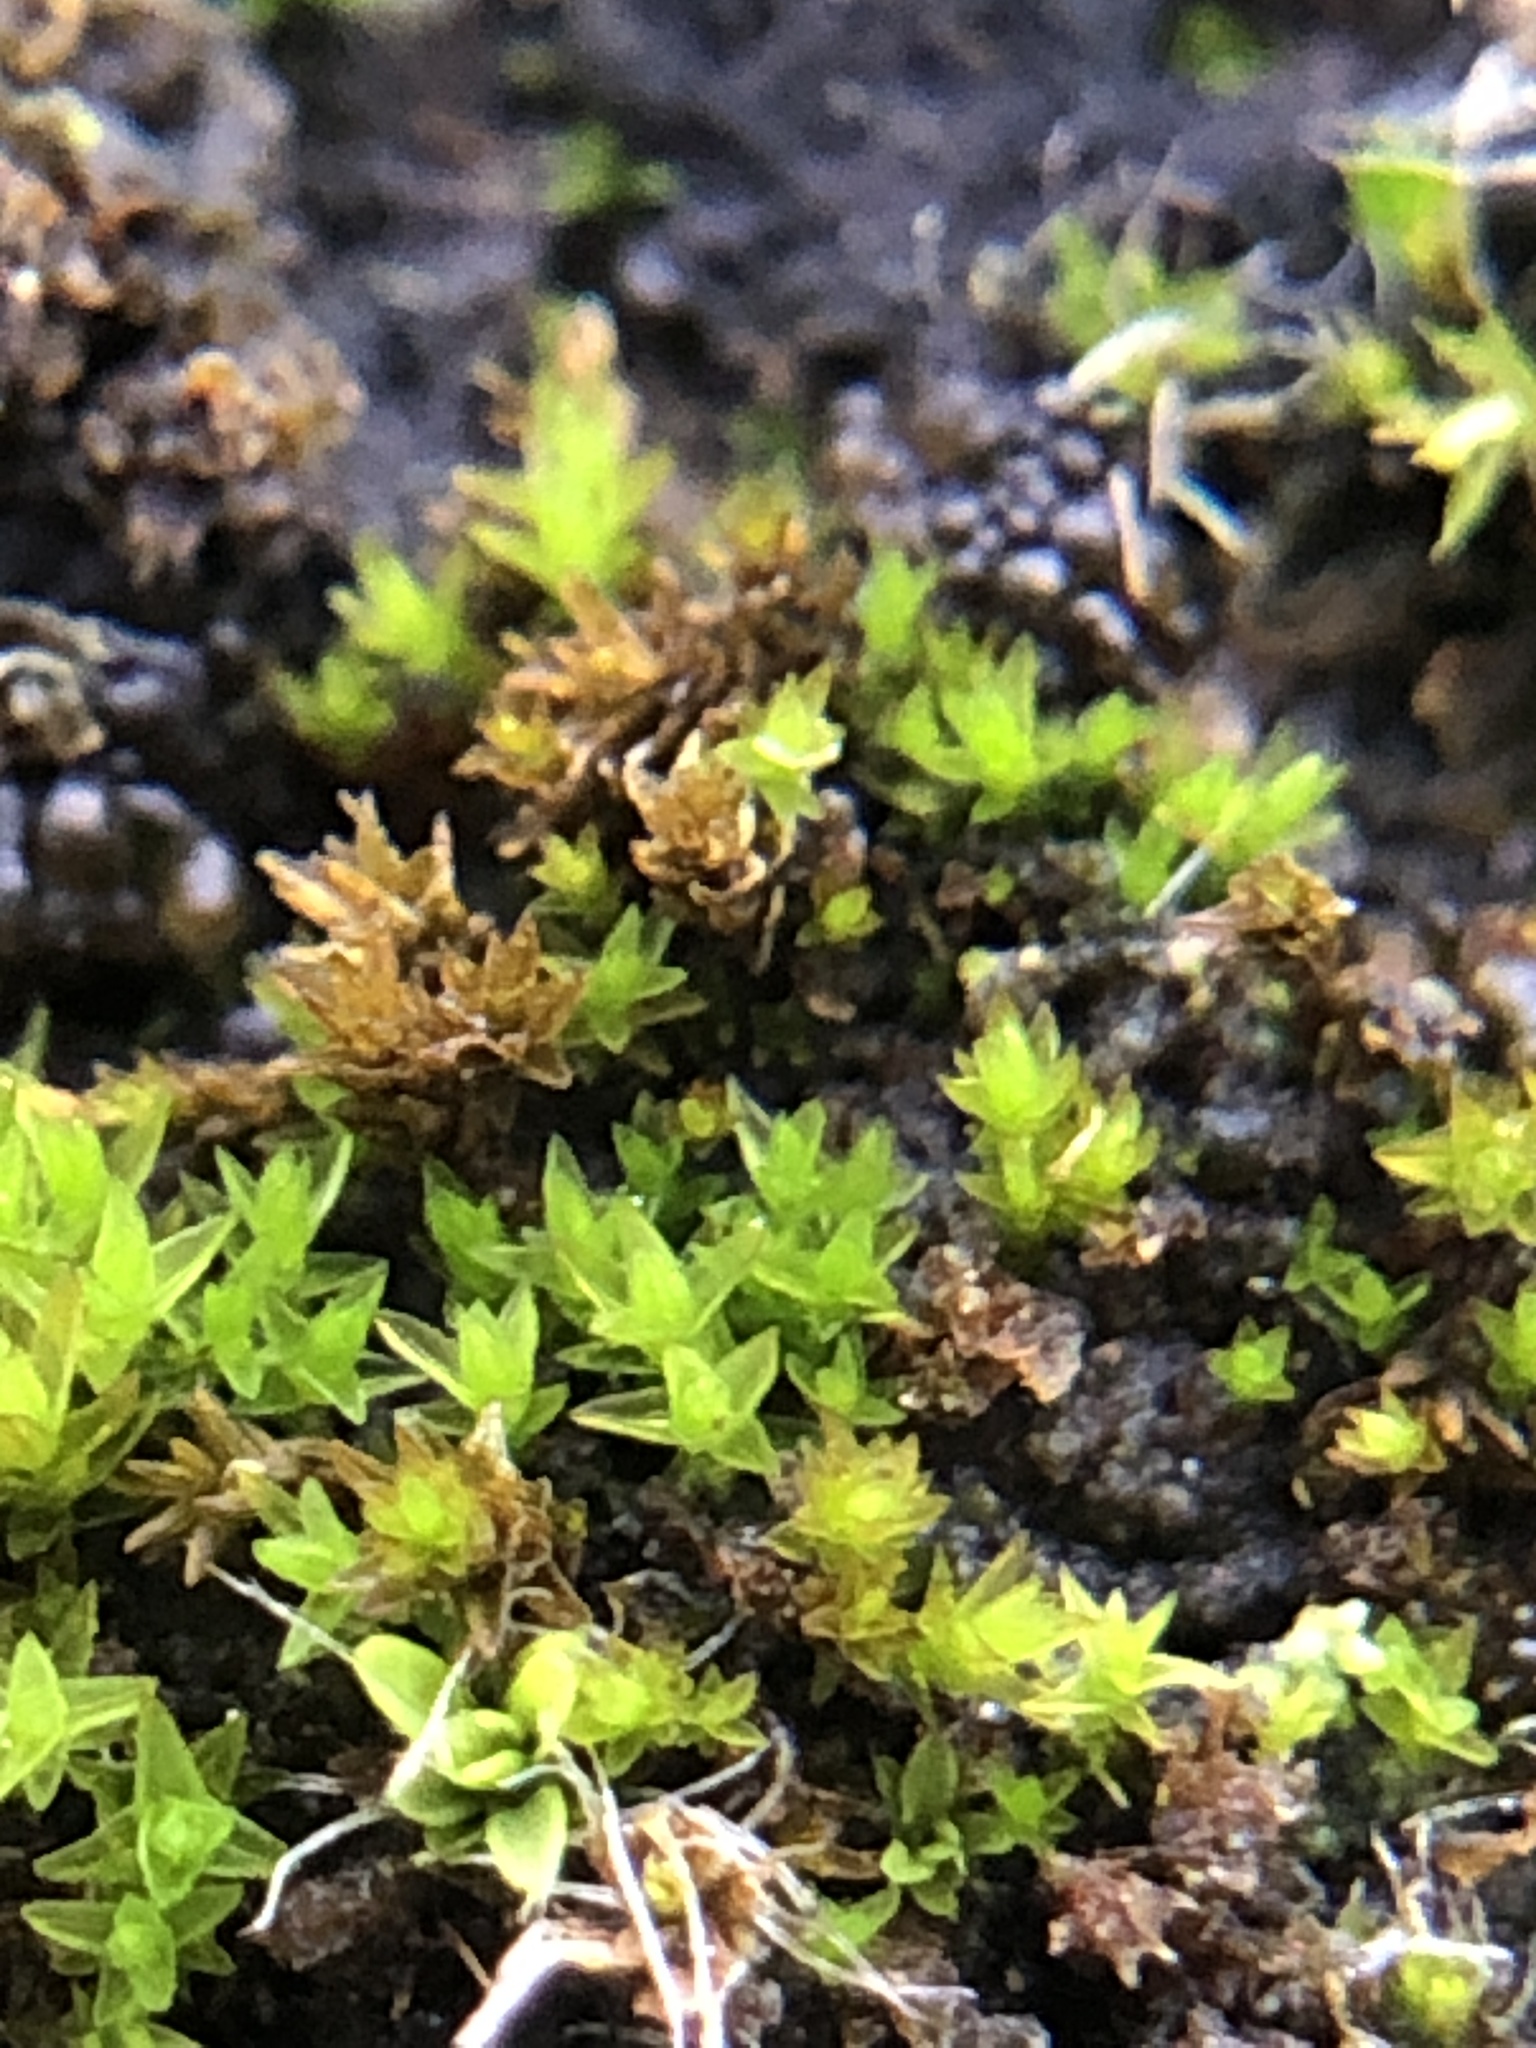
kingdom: Plantae
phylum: Bryophyta
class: Bryopsida
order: Pottiales
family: Pottiaceae
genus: Geheebia
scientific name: Geheebia lurida
